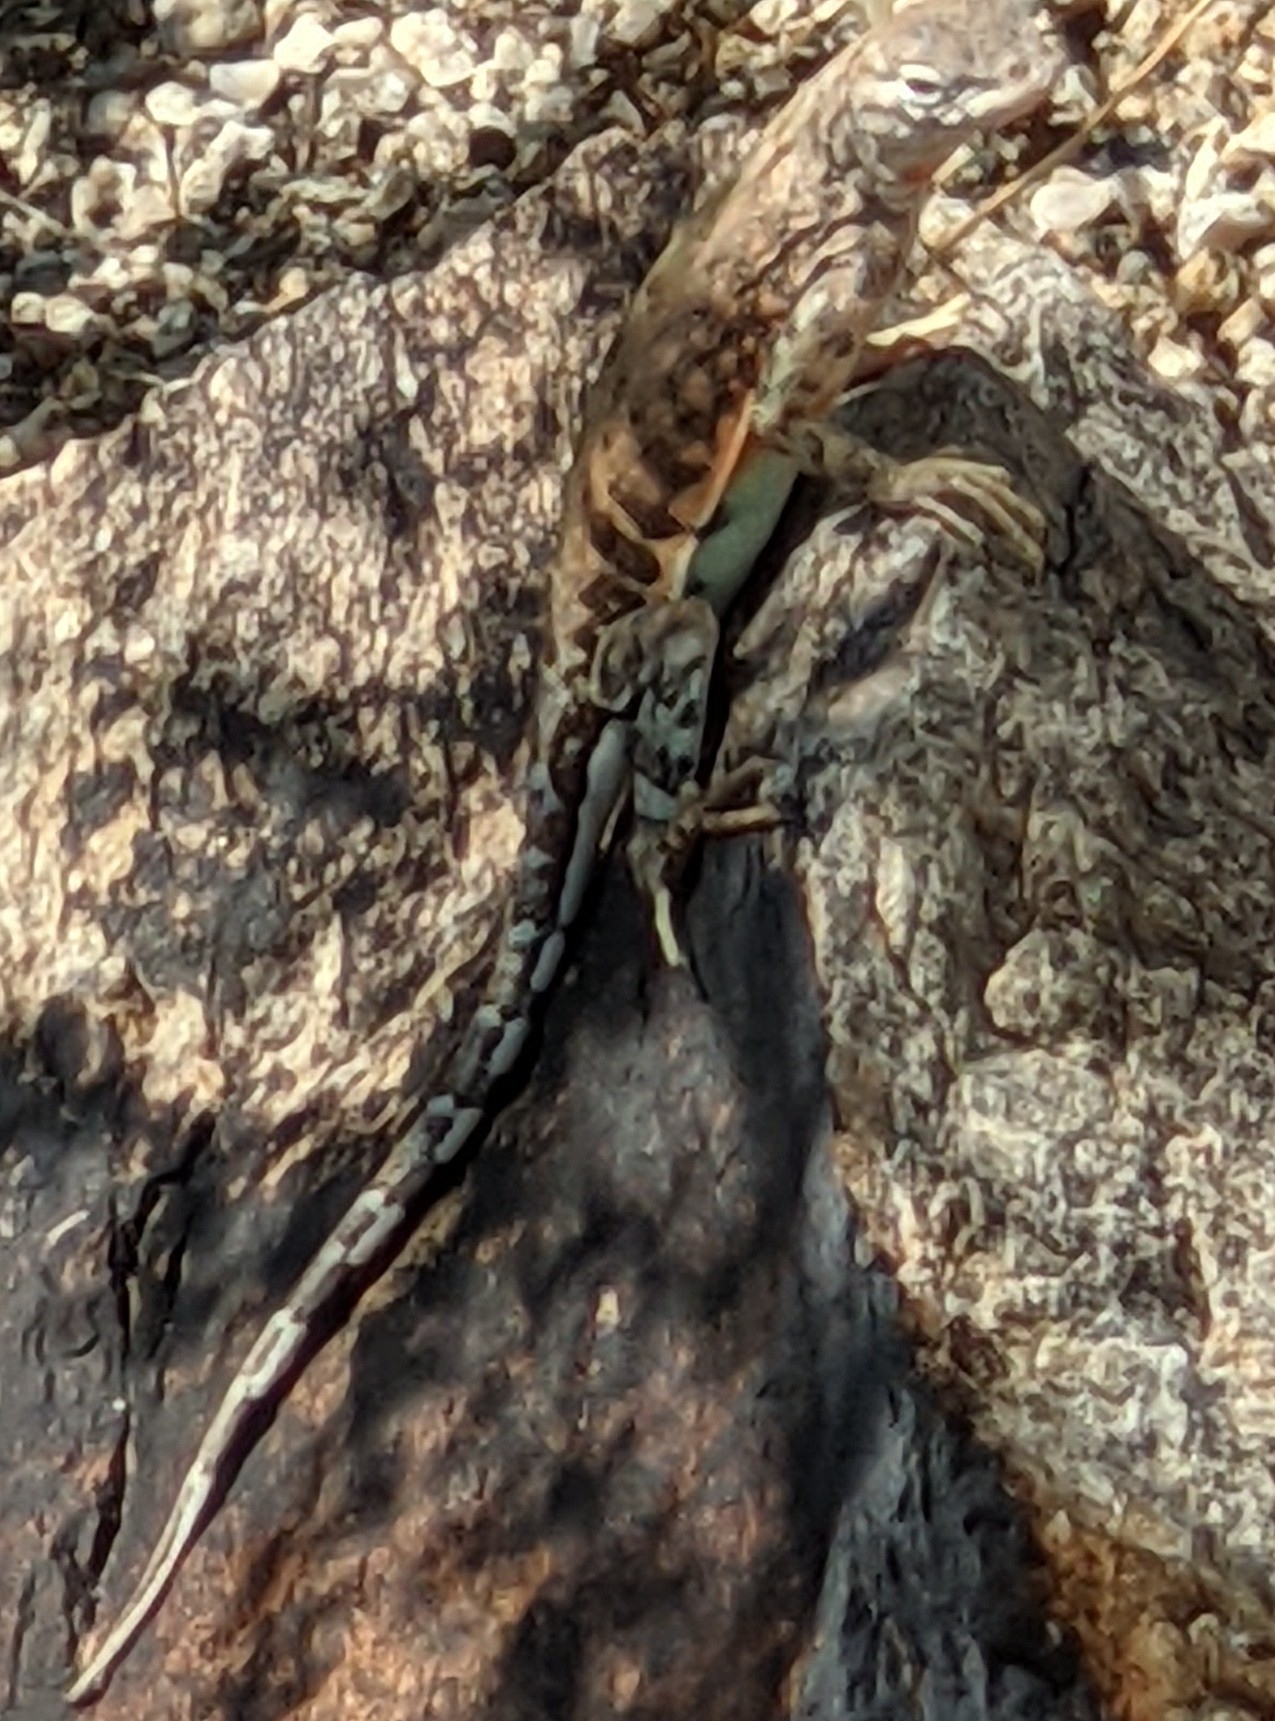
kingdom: Animalia
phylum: Chordata
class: Squamata
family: Phrynosomatidae
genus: Cophosaurus
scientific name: Cophosaurus texanus
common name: Greater earless lizard
